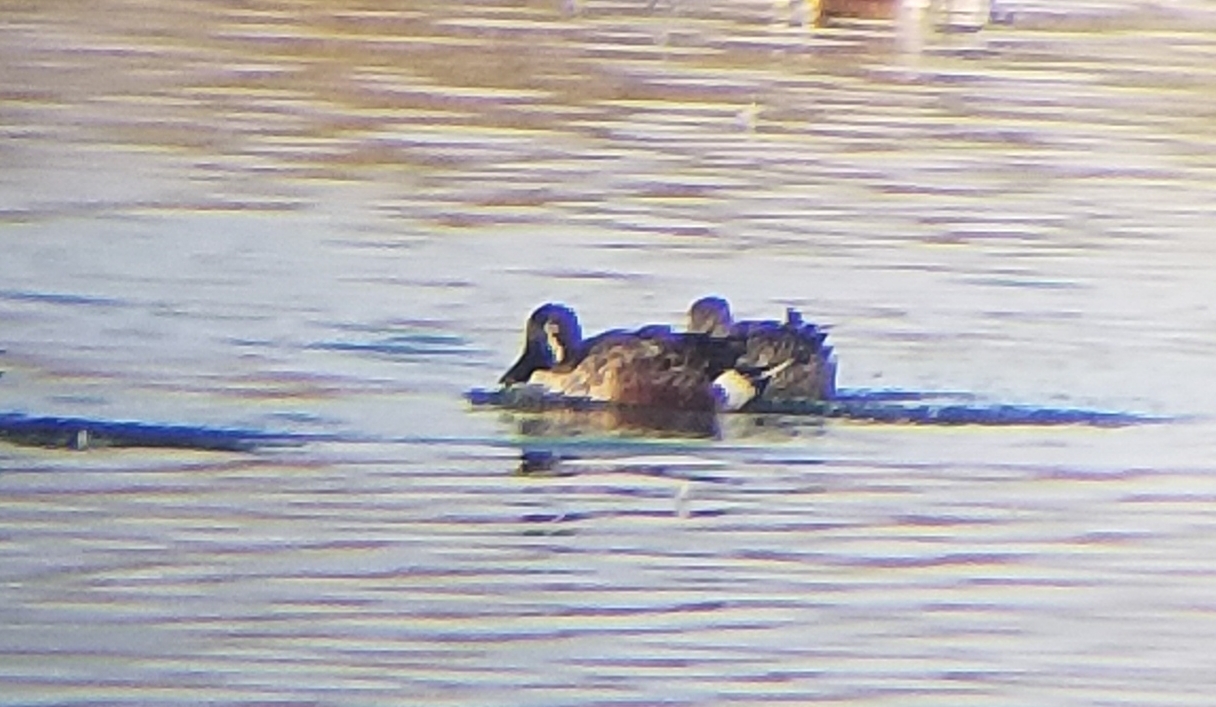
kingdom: Animalia
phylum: Chordata
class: Aves
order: Anseriformes
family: Anatidae
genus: Spatula
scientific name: Spatula discors
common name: Blue-winged teal
